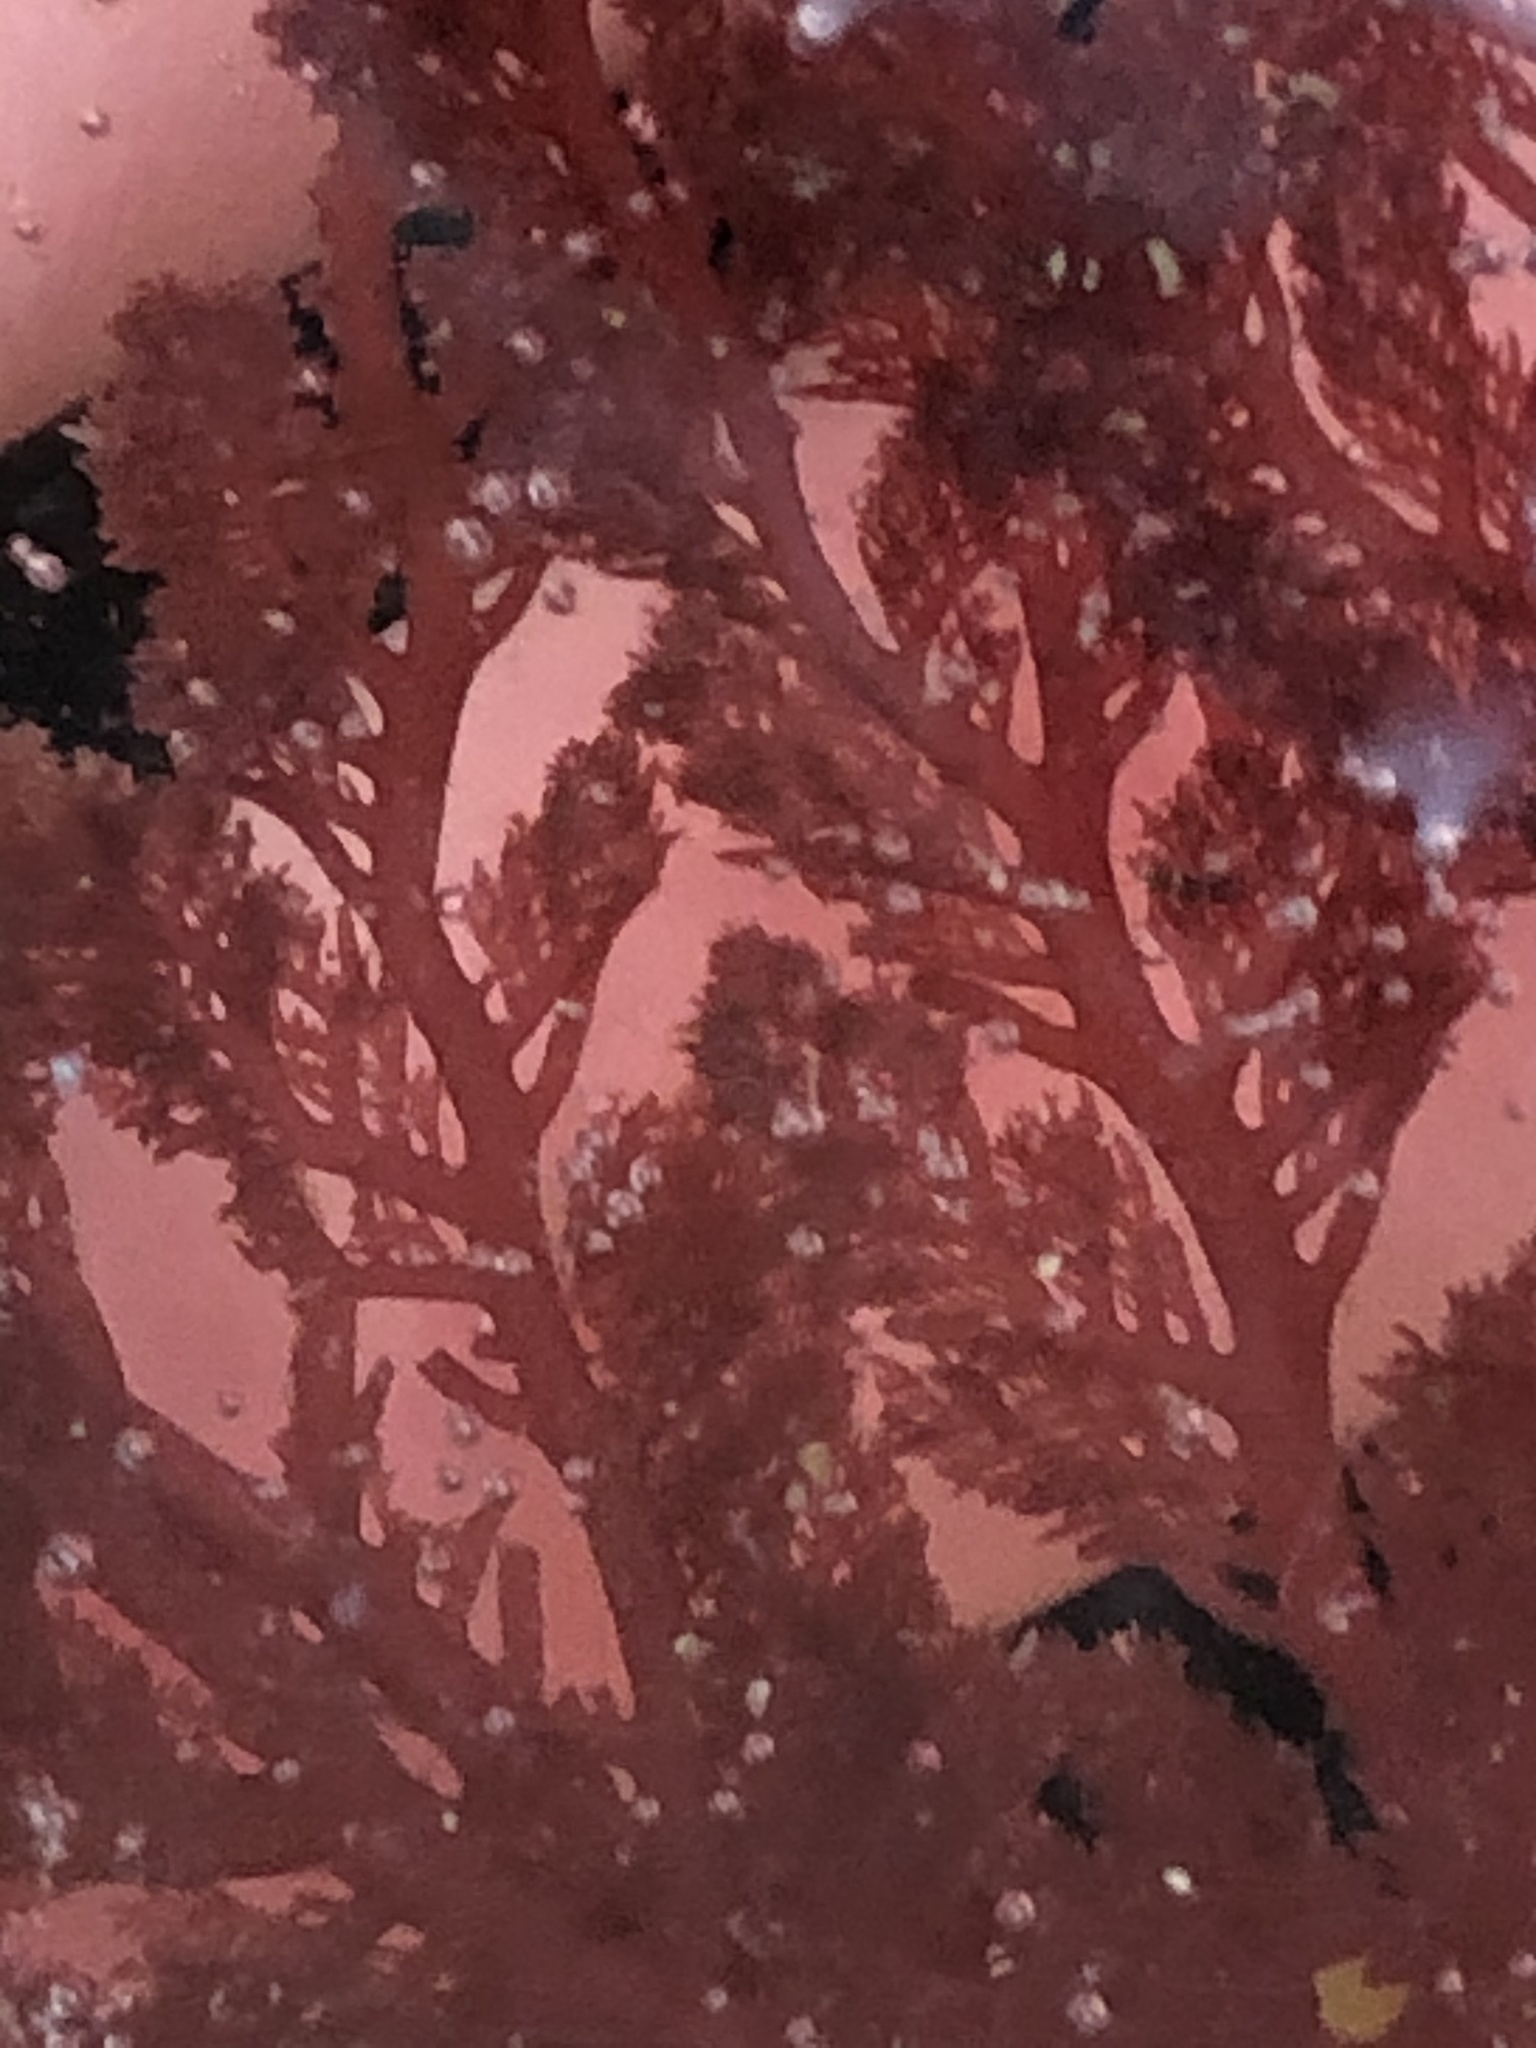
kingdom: Plantae
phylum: Rhodophyta
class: Florideophyceae
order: Plocamiales
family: Plocamiaceae
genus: Plocamium
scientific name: Plocamium cartilagineum
